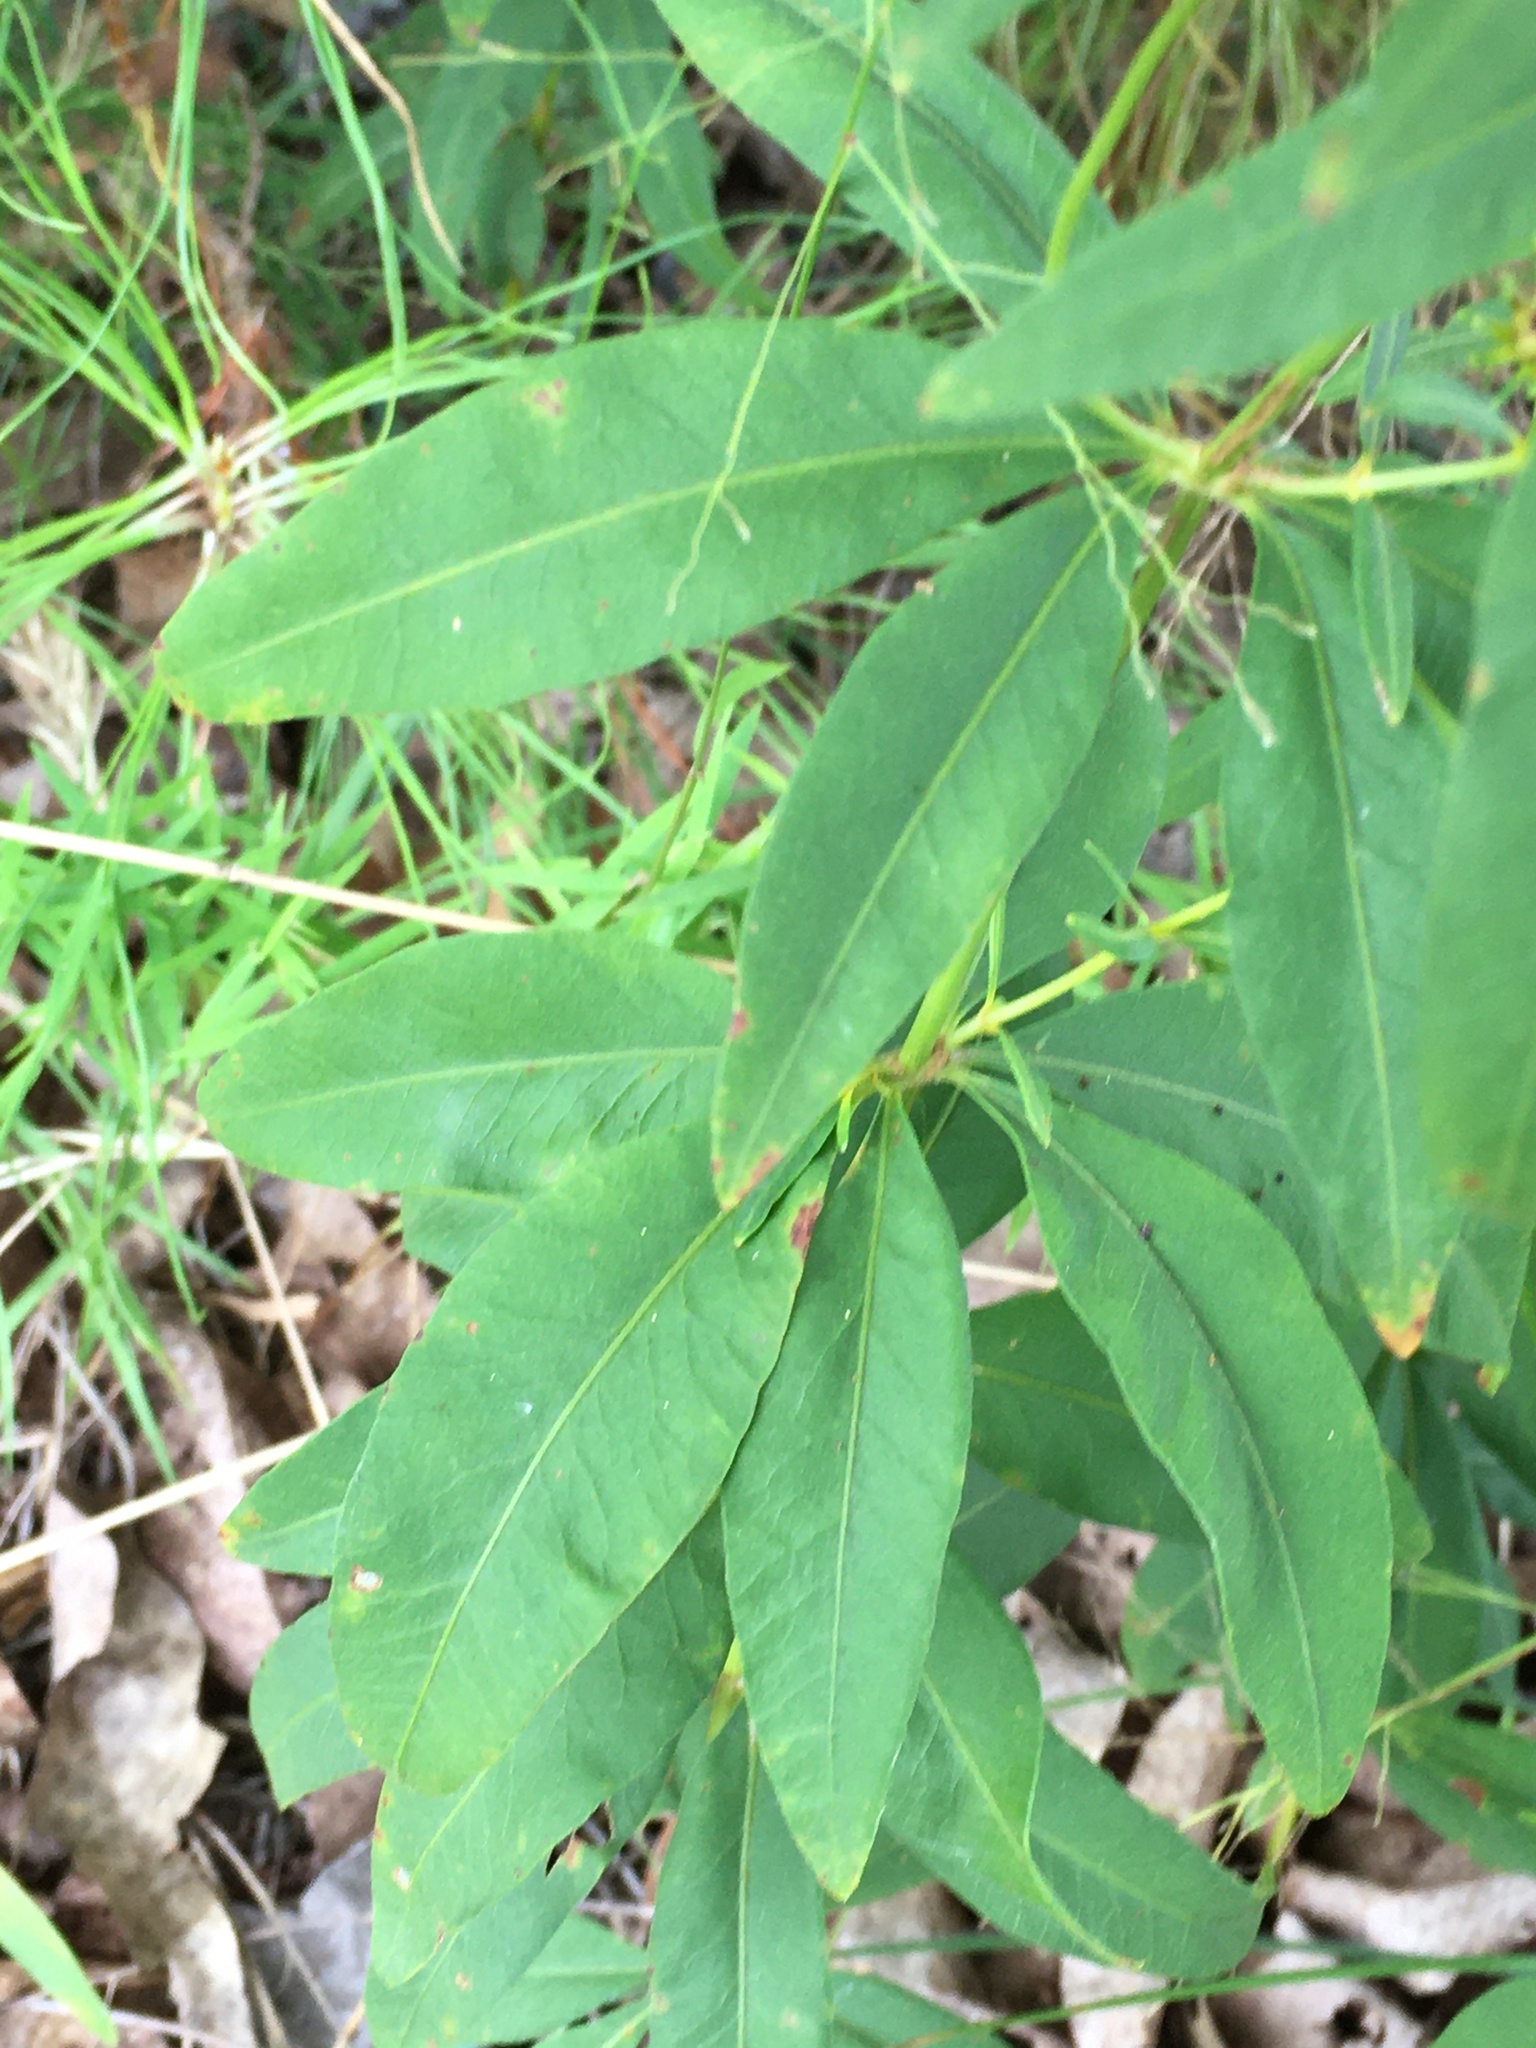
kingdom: Plantae
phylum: Tracheophyta
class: Magnoliopsida
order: Asterales
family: Asteraceae
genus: Coreopsis
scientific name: Coreopsis major
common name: Forest tickseed
